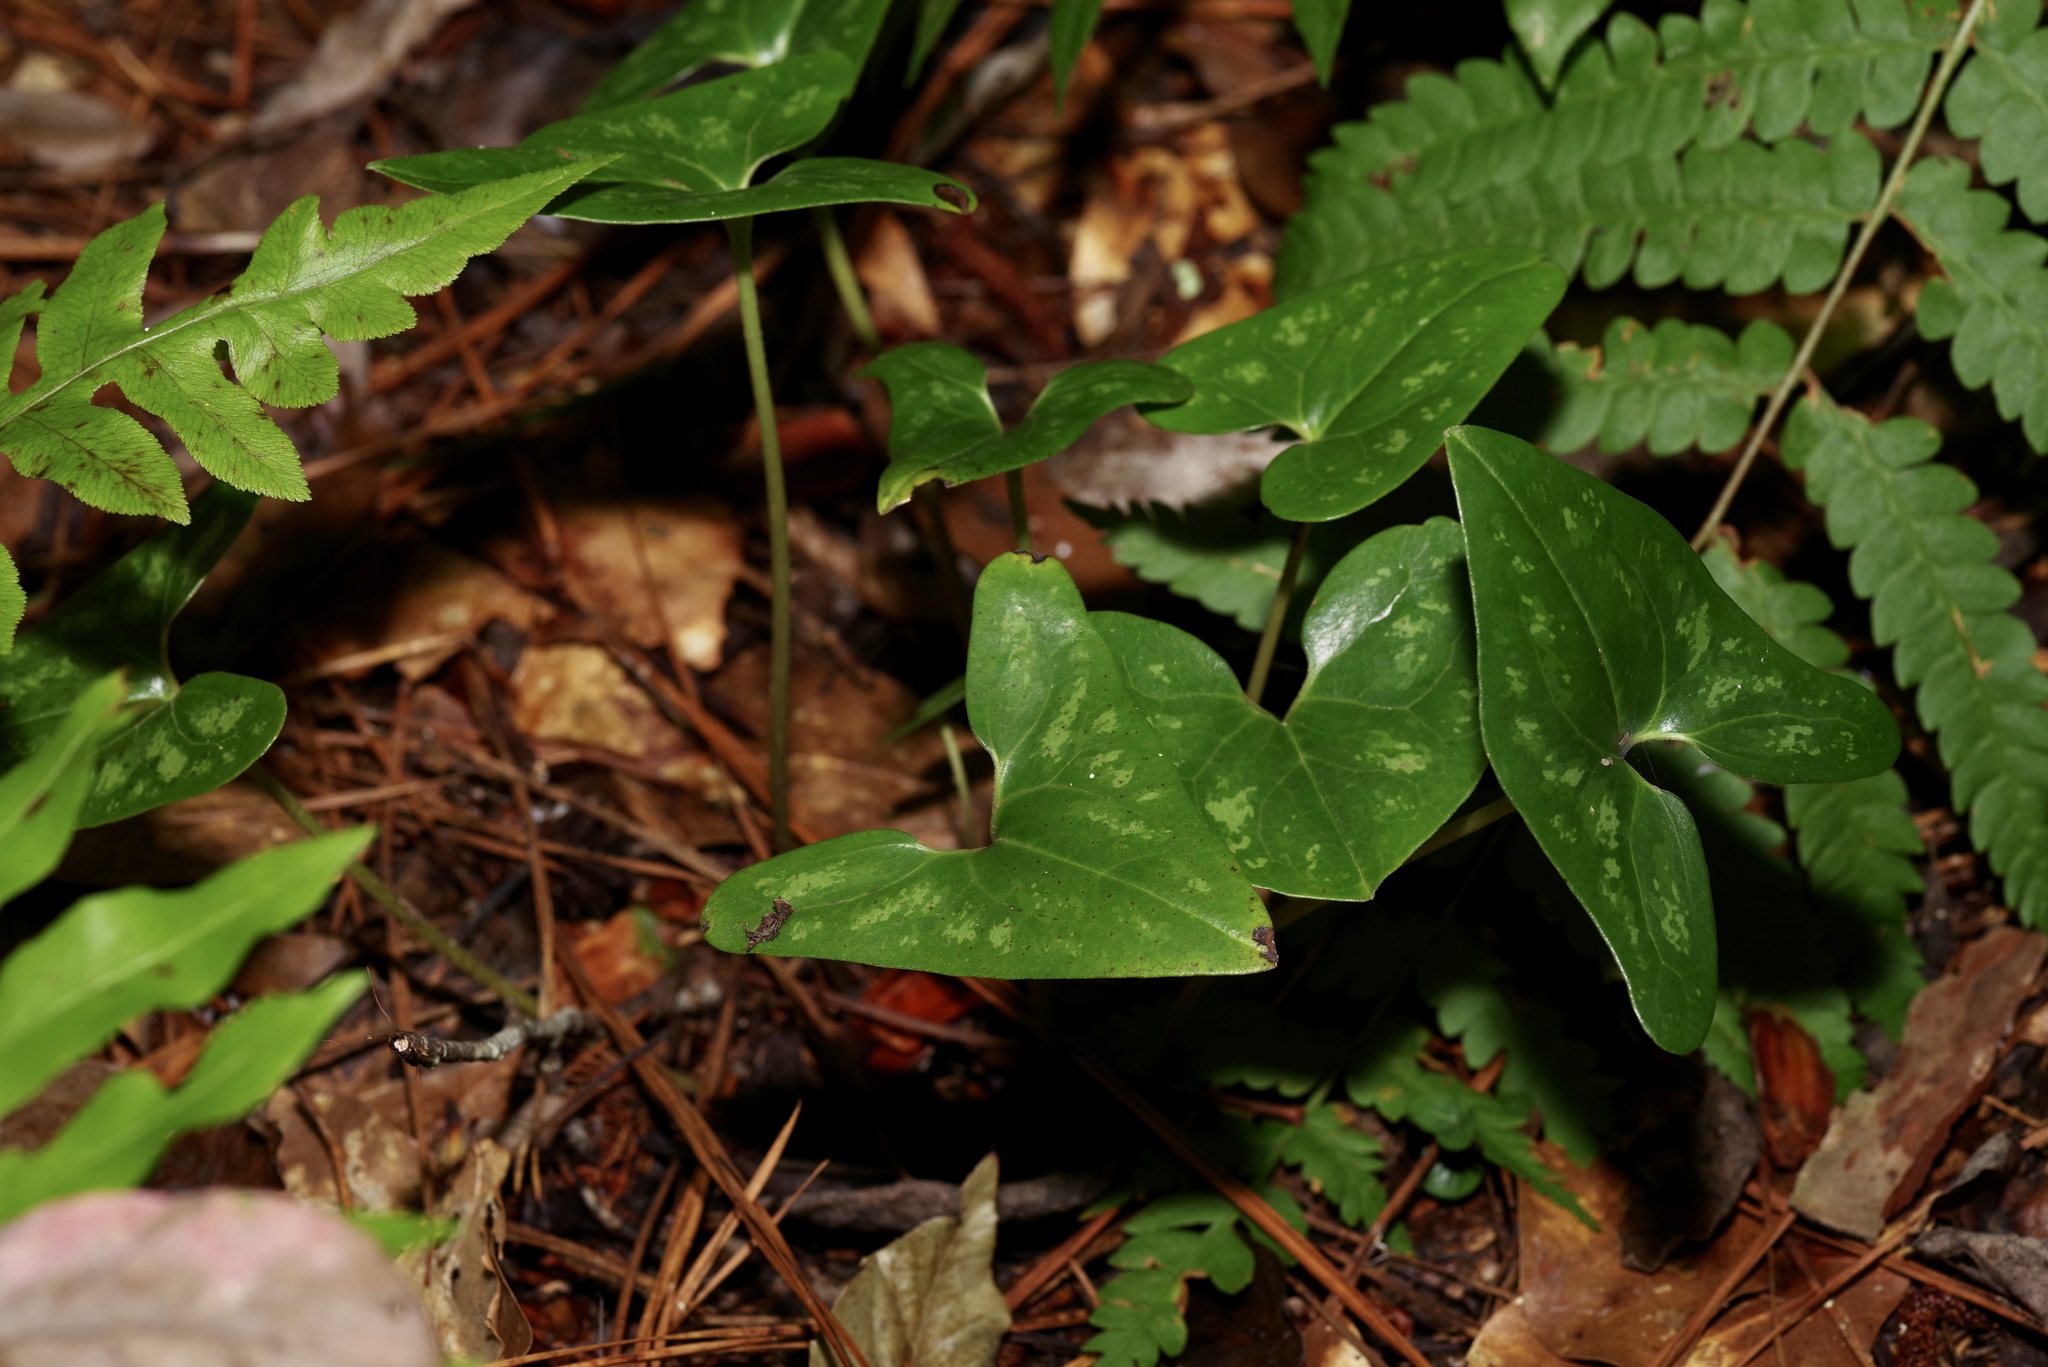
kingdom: Plantae
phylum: Tracheophyta
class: Magnoliopsida
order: Piperales
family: Aristolochiaceae
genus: Hexastylis
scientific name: Hexastylis arifolia
